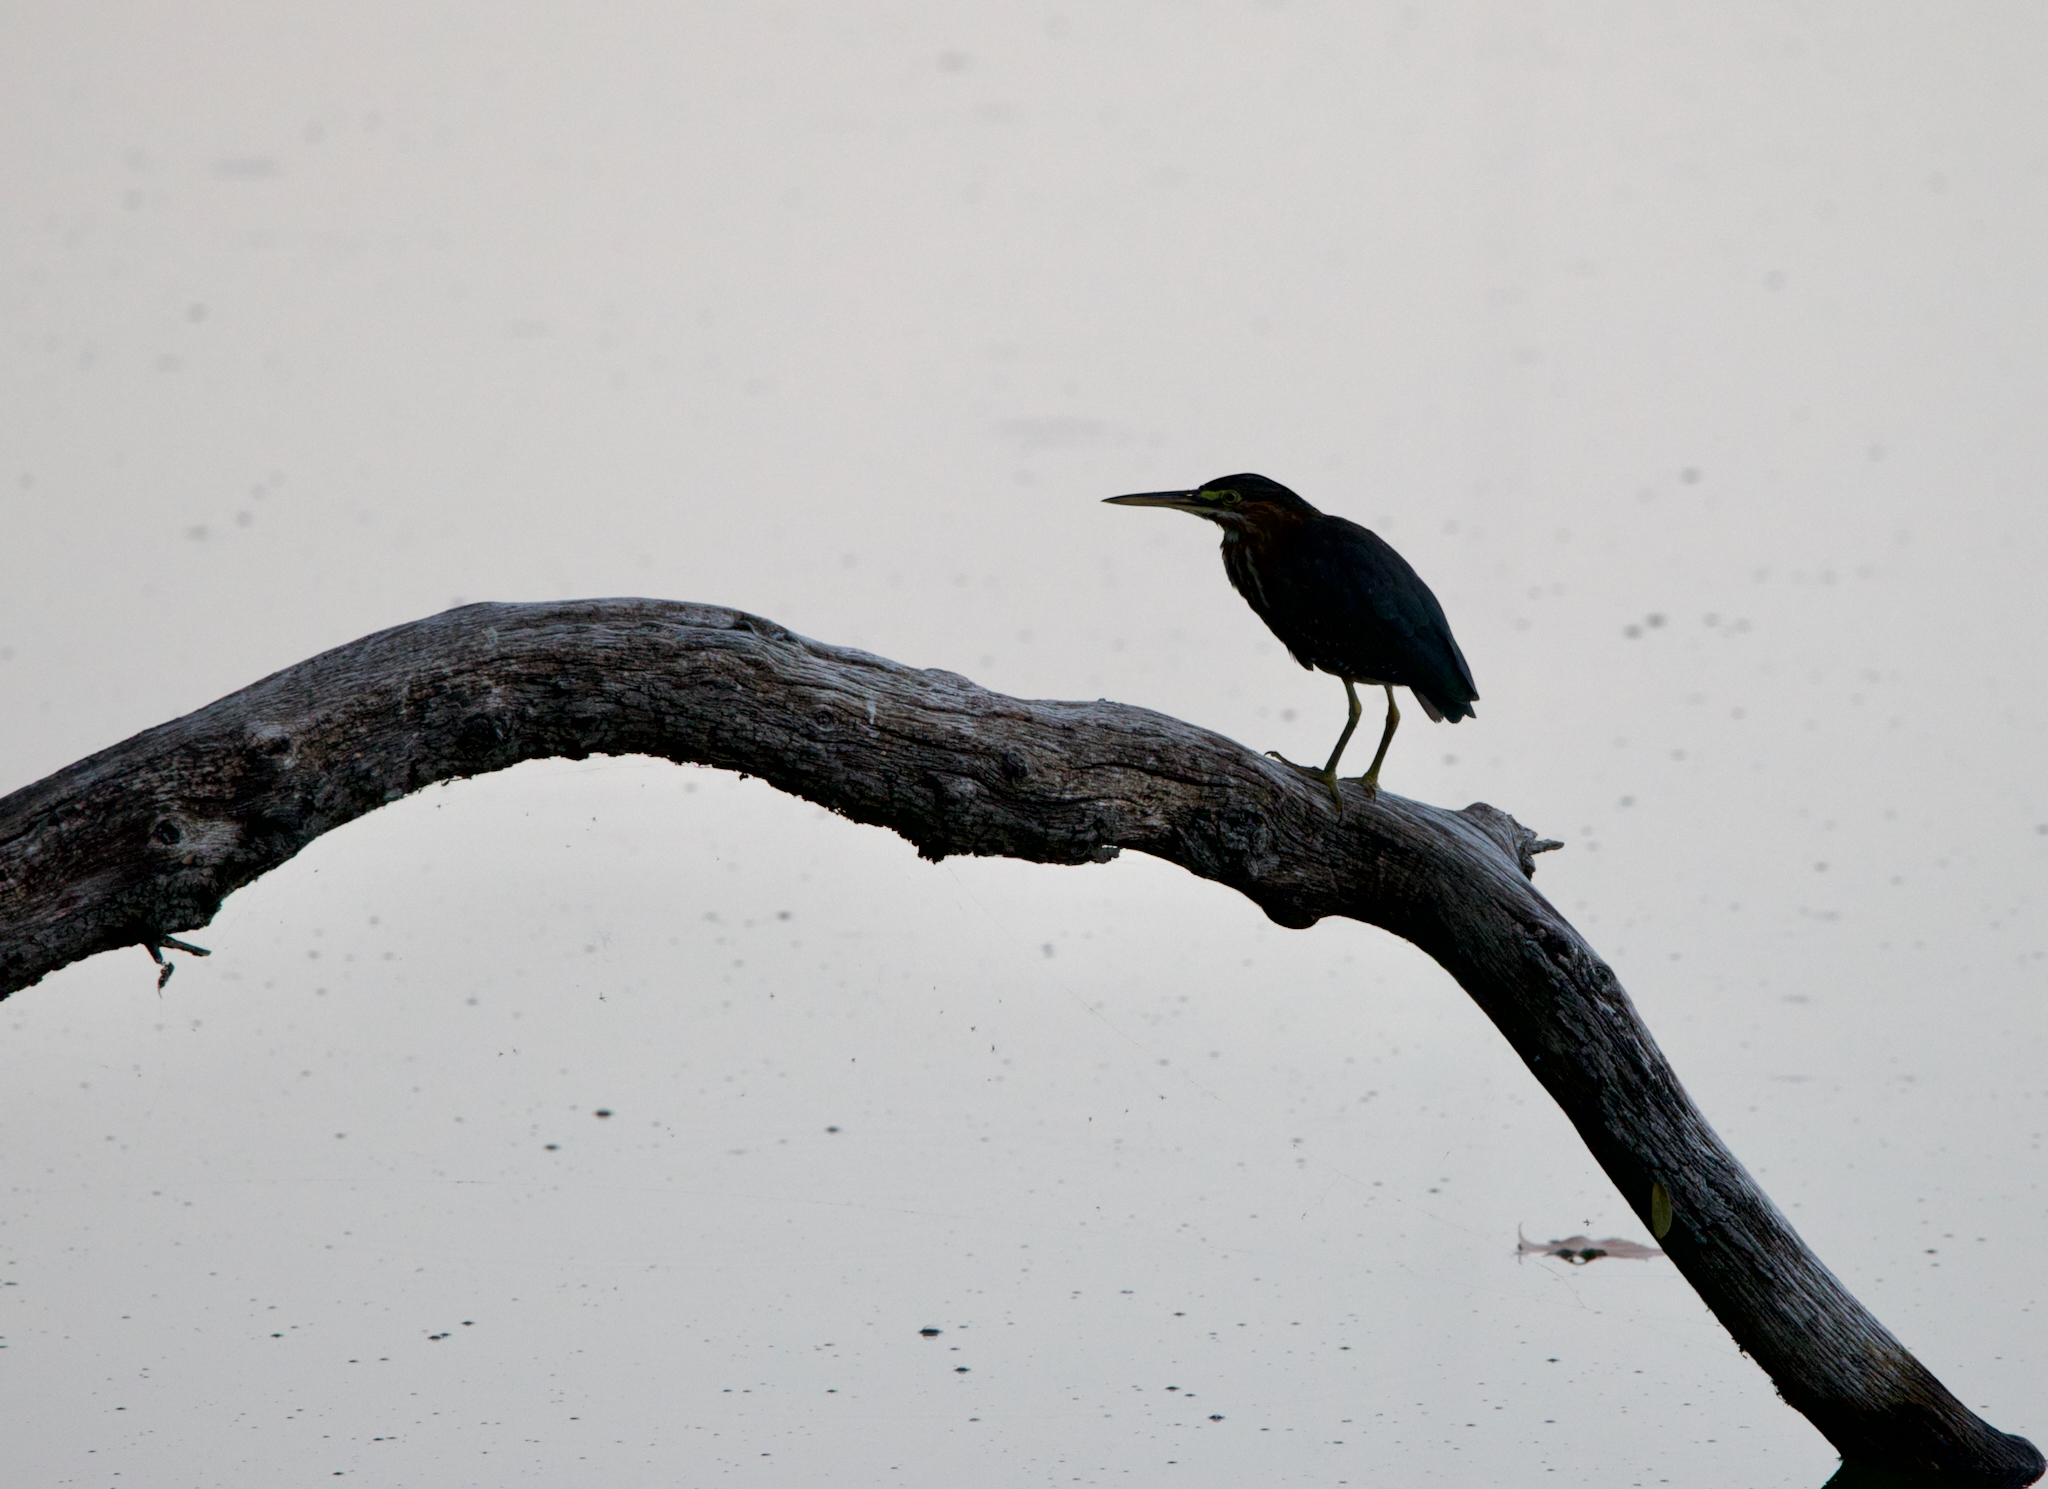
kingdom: Animalia
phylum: Chordata
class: Aves
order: Pelecaniformes
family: Ardeidae
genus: Butorides
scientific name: Butorides virescens
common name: Green heron
